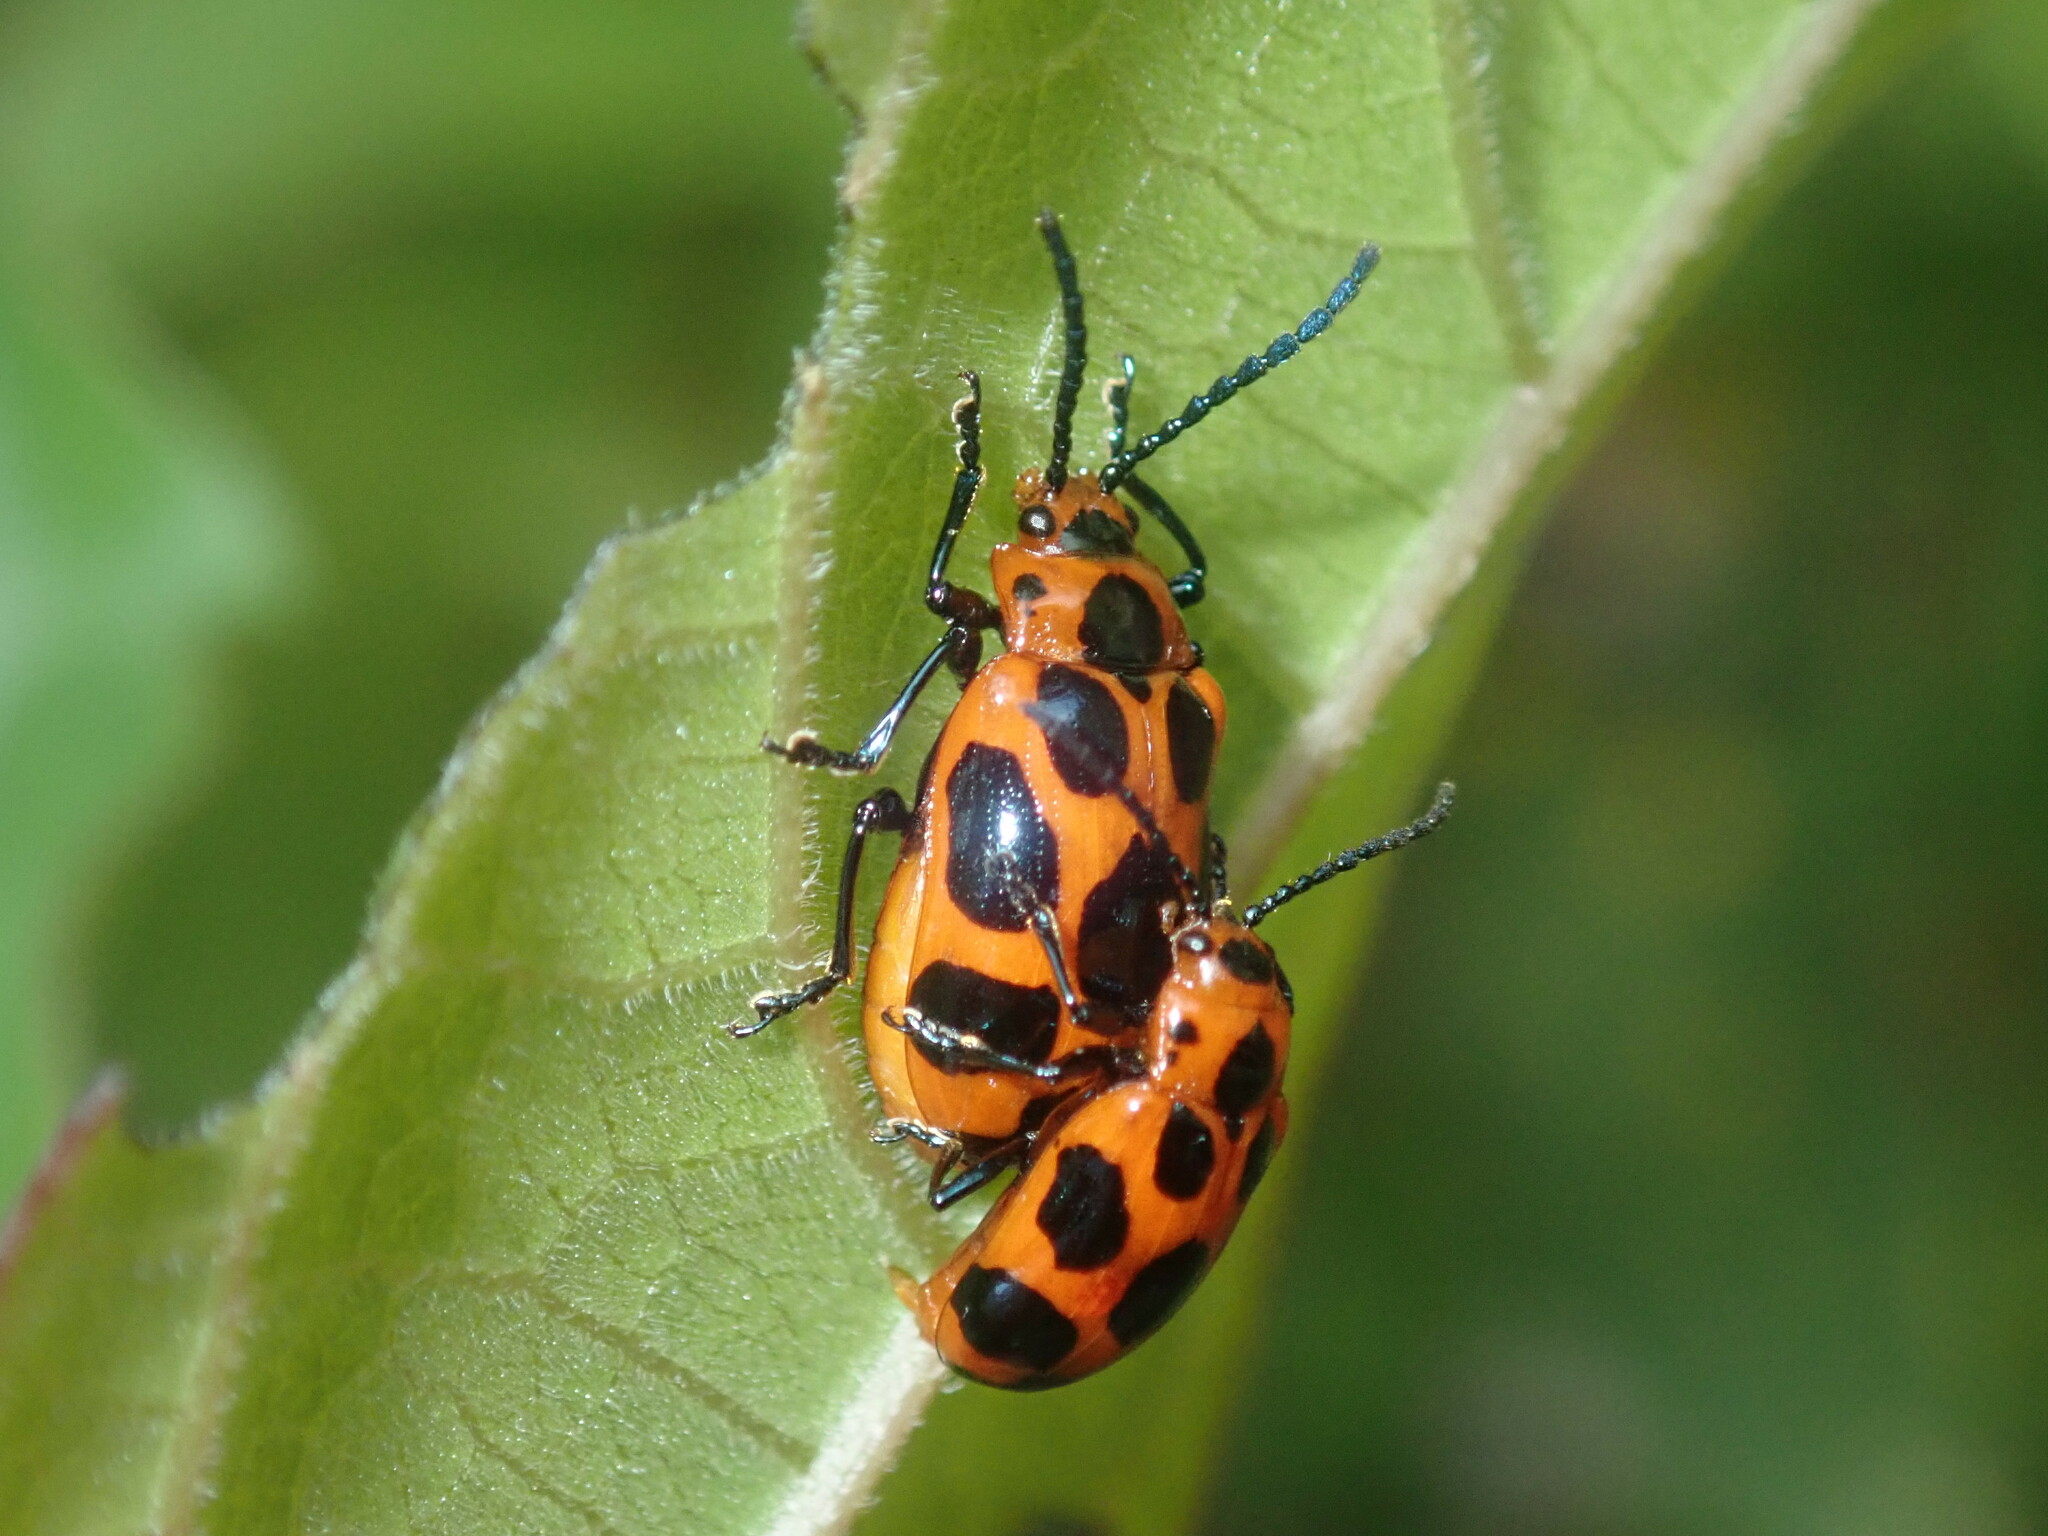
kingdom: Animalia
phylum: Arthropoda
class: Insecta
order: Coleoptera
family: Chrysomelidae
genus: Phyllocharis
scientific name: Phyllocharis
